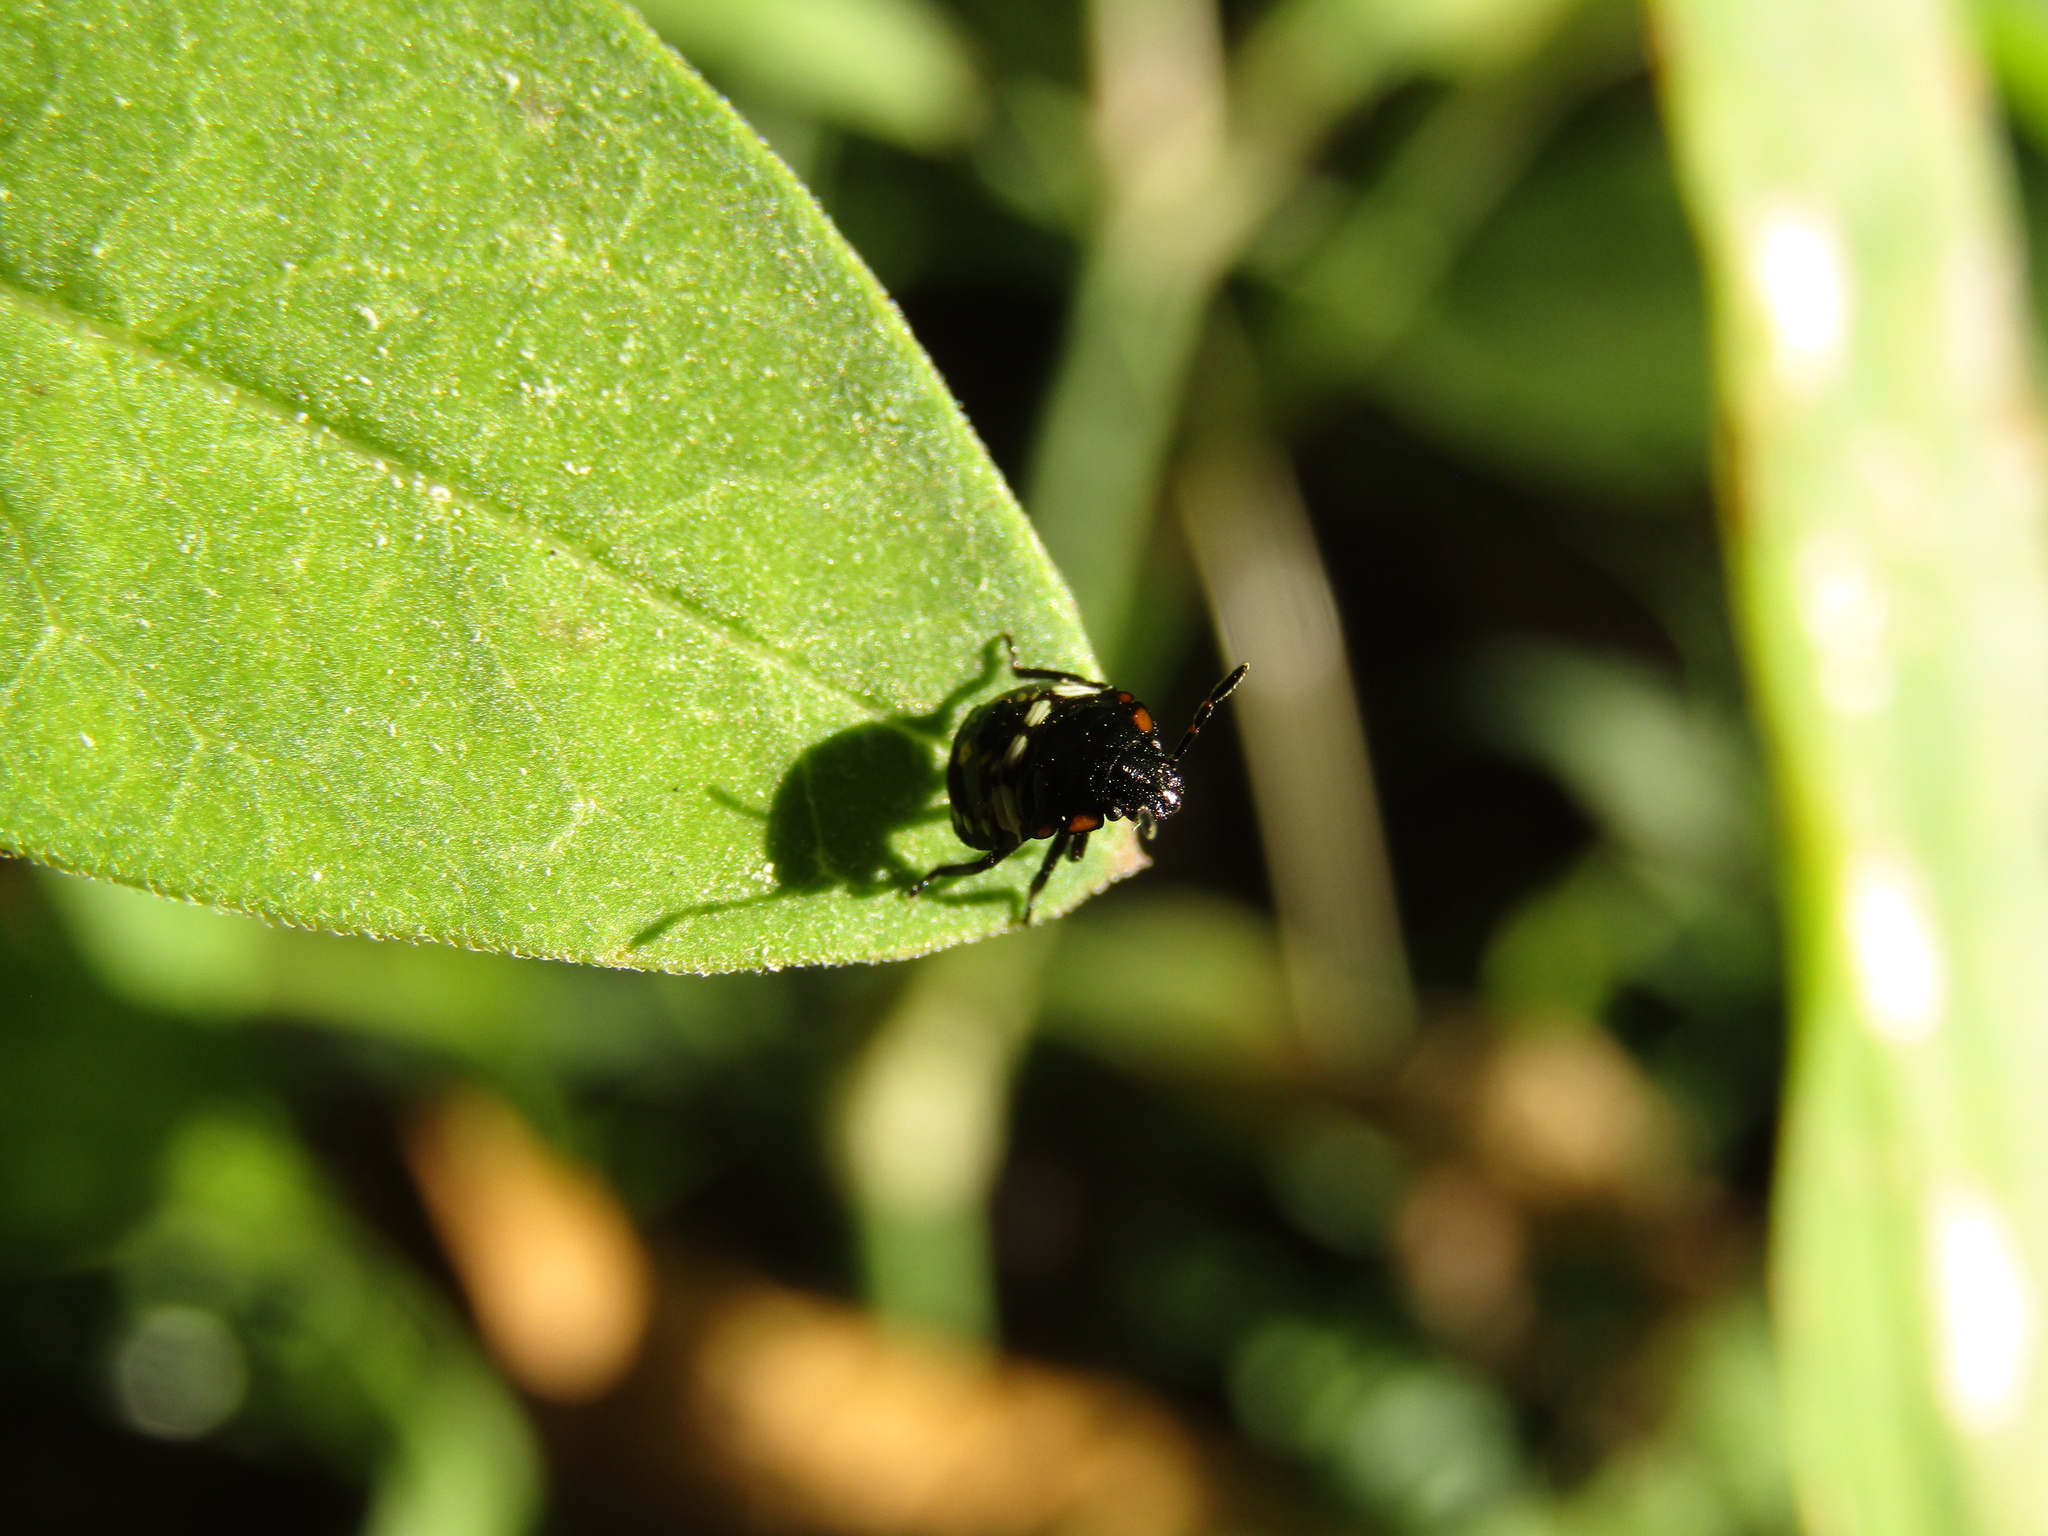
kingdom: Animalia
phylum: Arthropoda
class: Insecta
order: Hemiptera
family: Pentatomidae
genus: Nezara
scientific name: Nezara viridula
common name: Southern green stink bug
